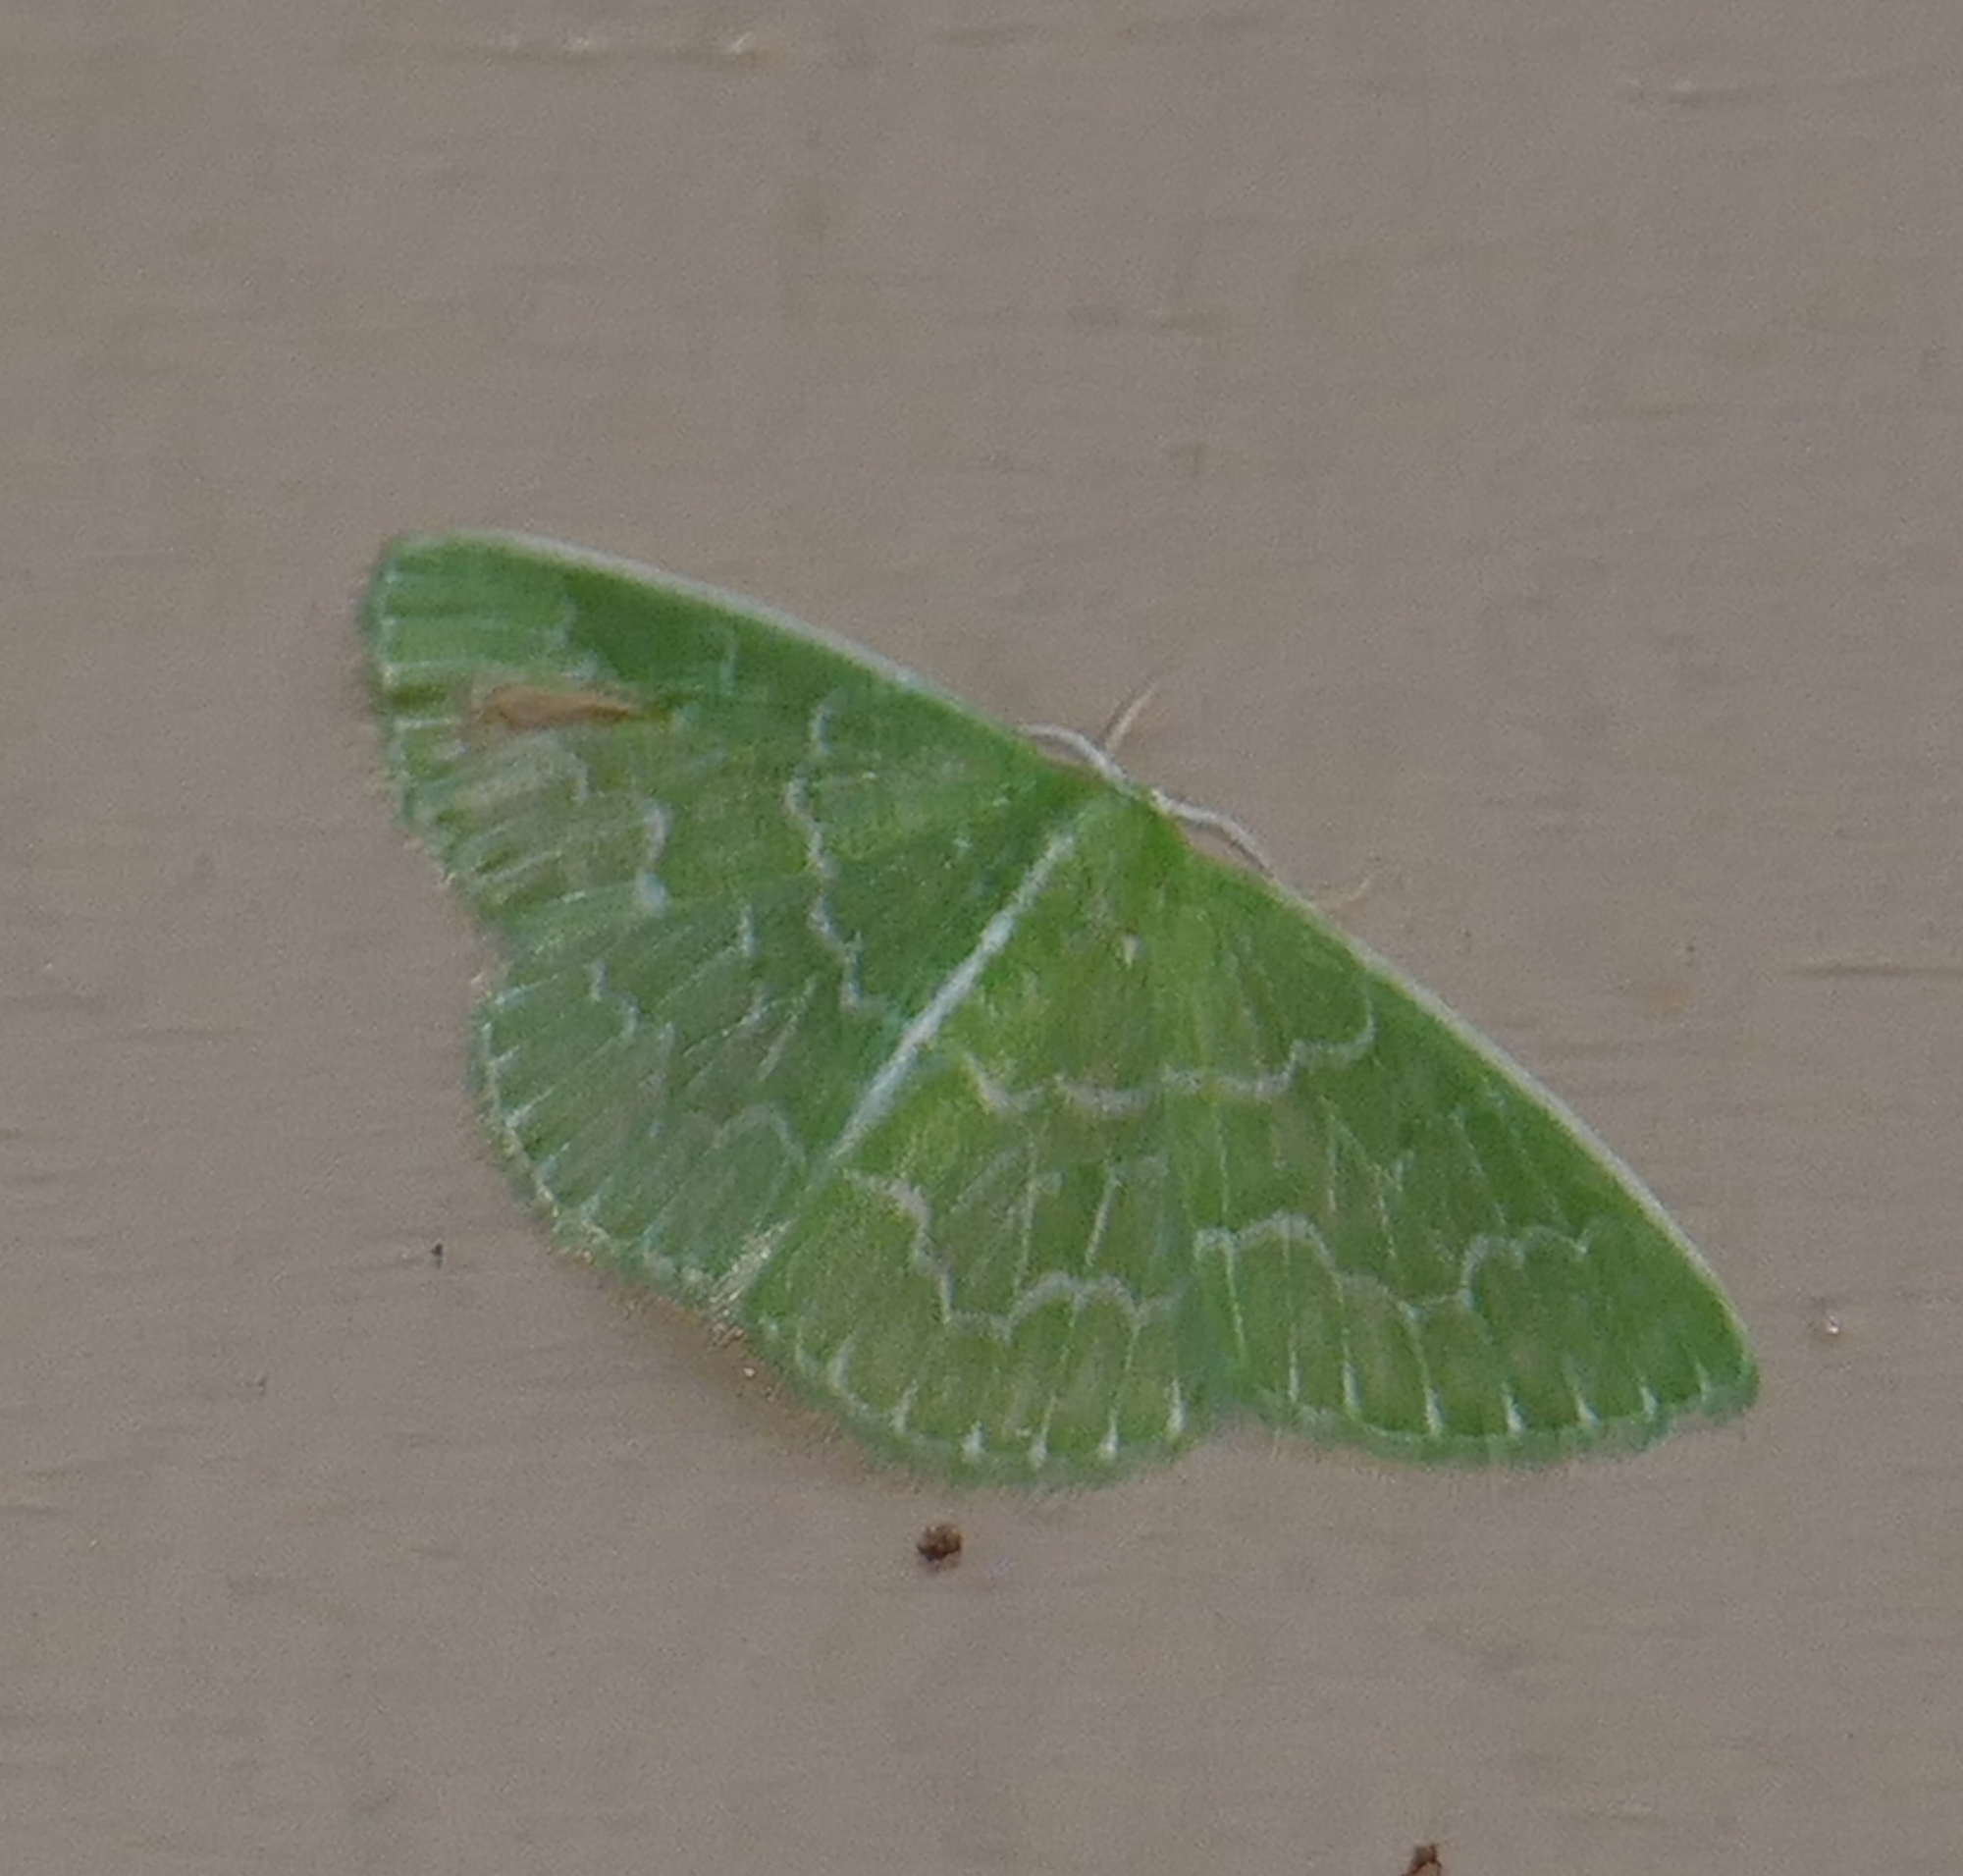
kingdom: Animalia
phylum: Arthropoda
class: Insecta
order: Lepidoptera
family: Geometridae
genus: Synchlora
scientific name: Synchlora frondaria
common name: Southern emerald
